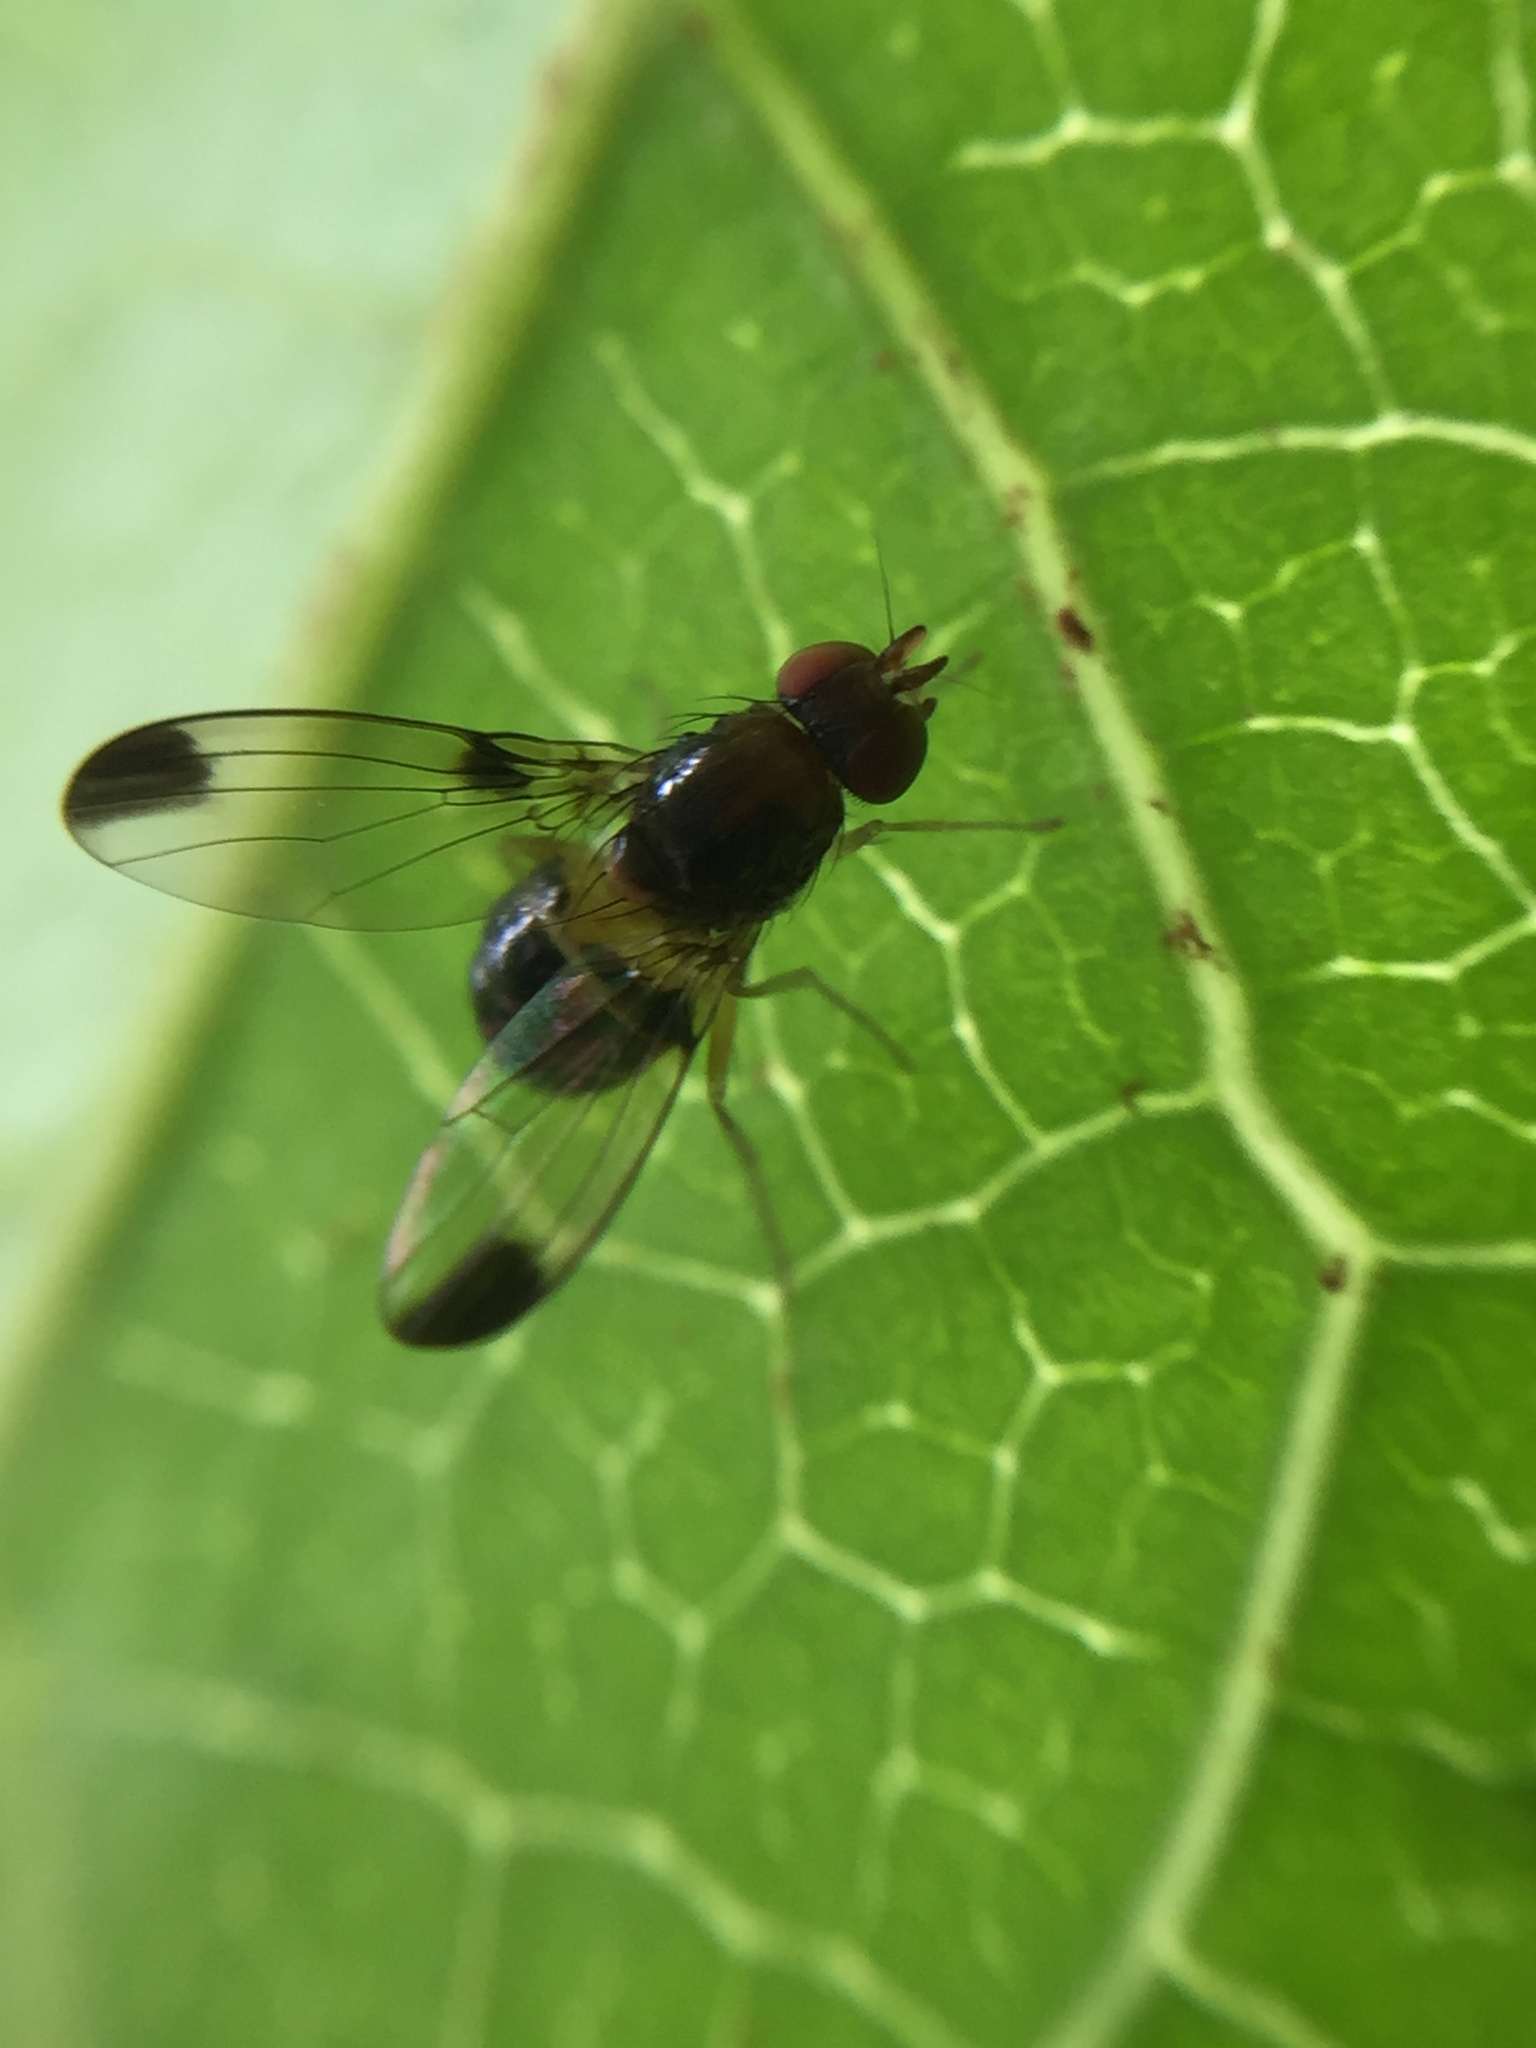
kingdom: Animalia
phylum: Arthropoda
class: Insecta
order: Diptera
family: Pallopteridae
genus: Neomaorina
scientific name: Neomaorina bimacula
